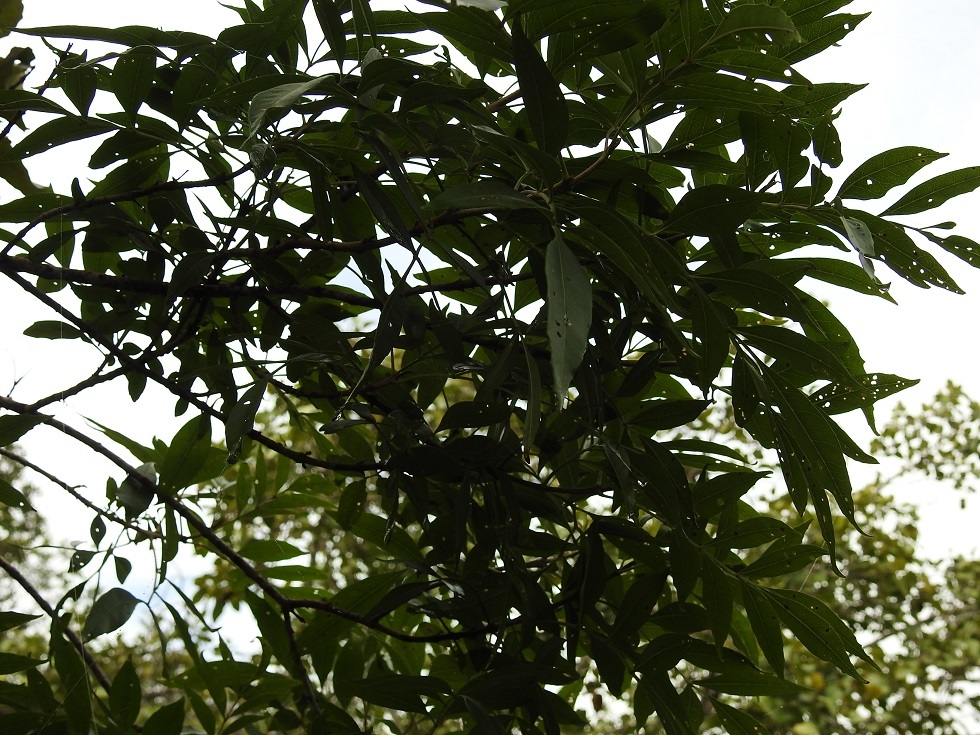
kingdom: Plantae
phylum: Tracheophyta
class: Magnoliopsida
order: Lamiales
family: Oleaceae
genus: Fraxinus
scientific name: Fraxinus purpusii
